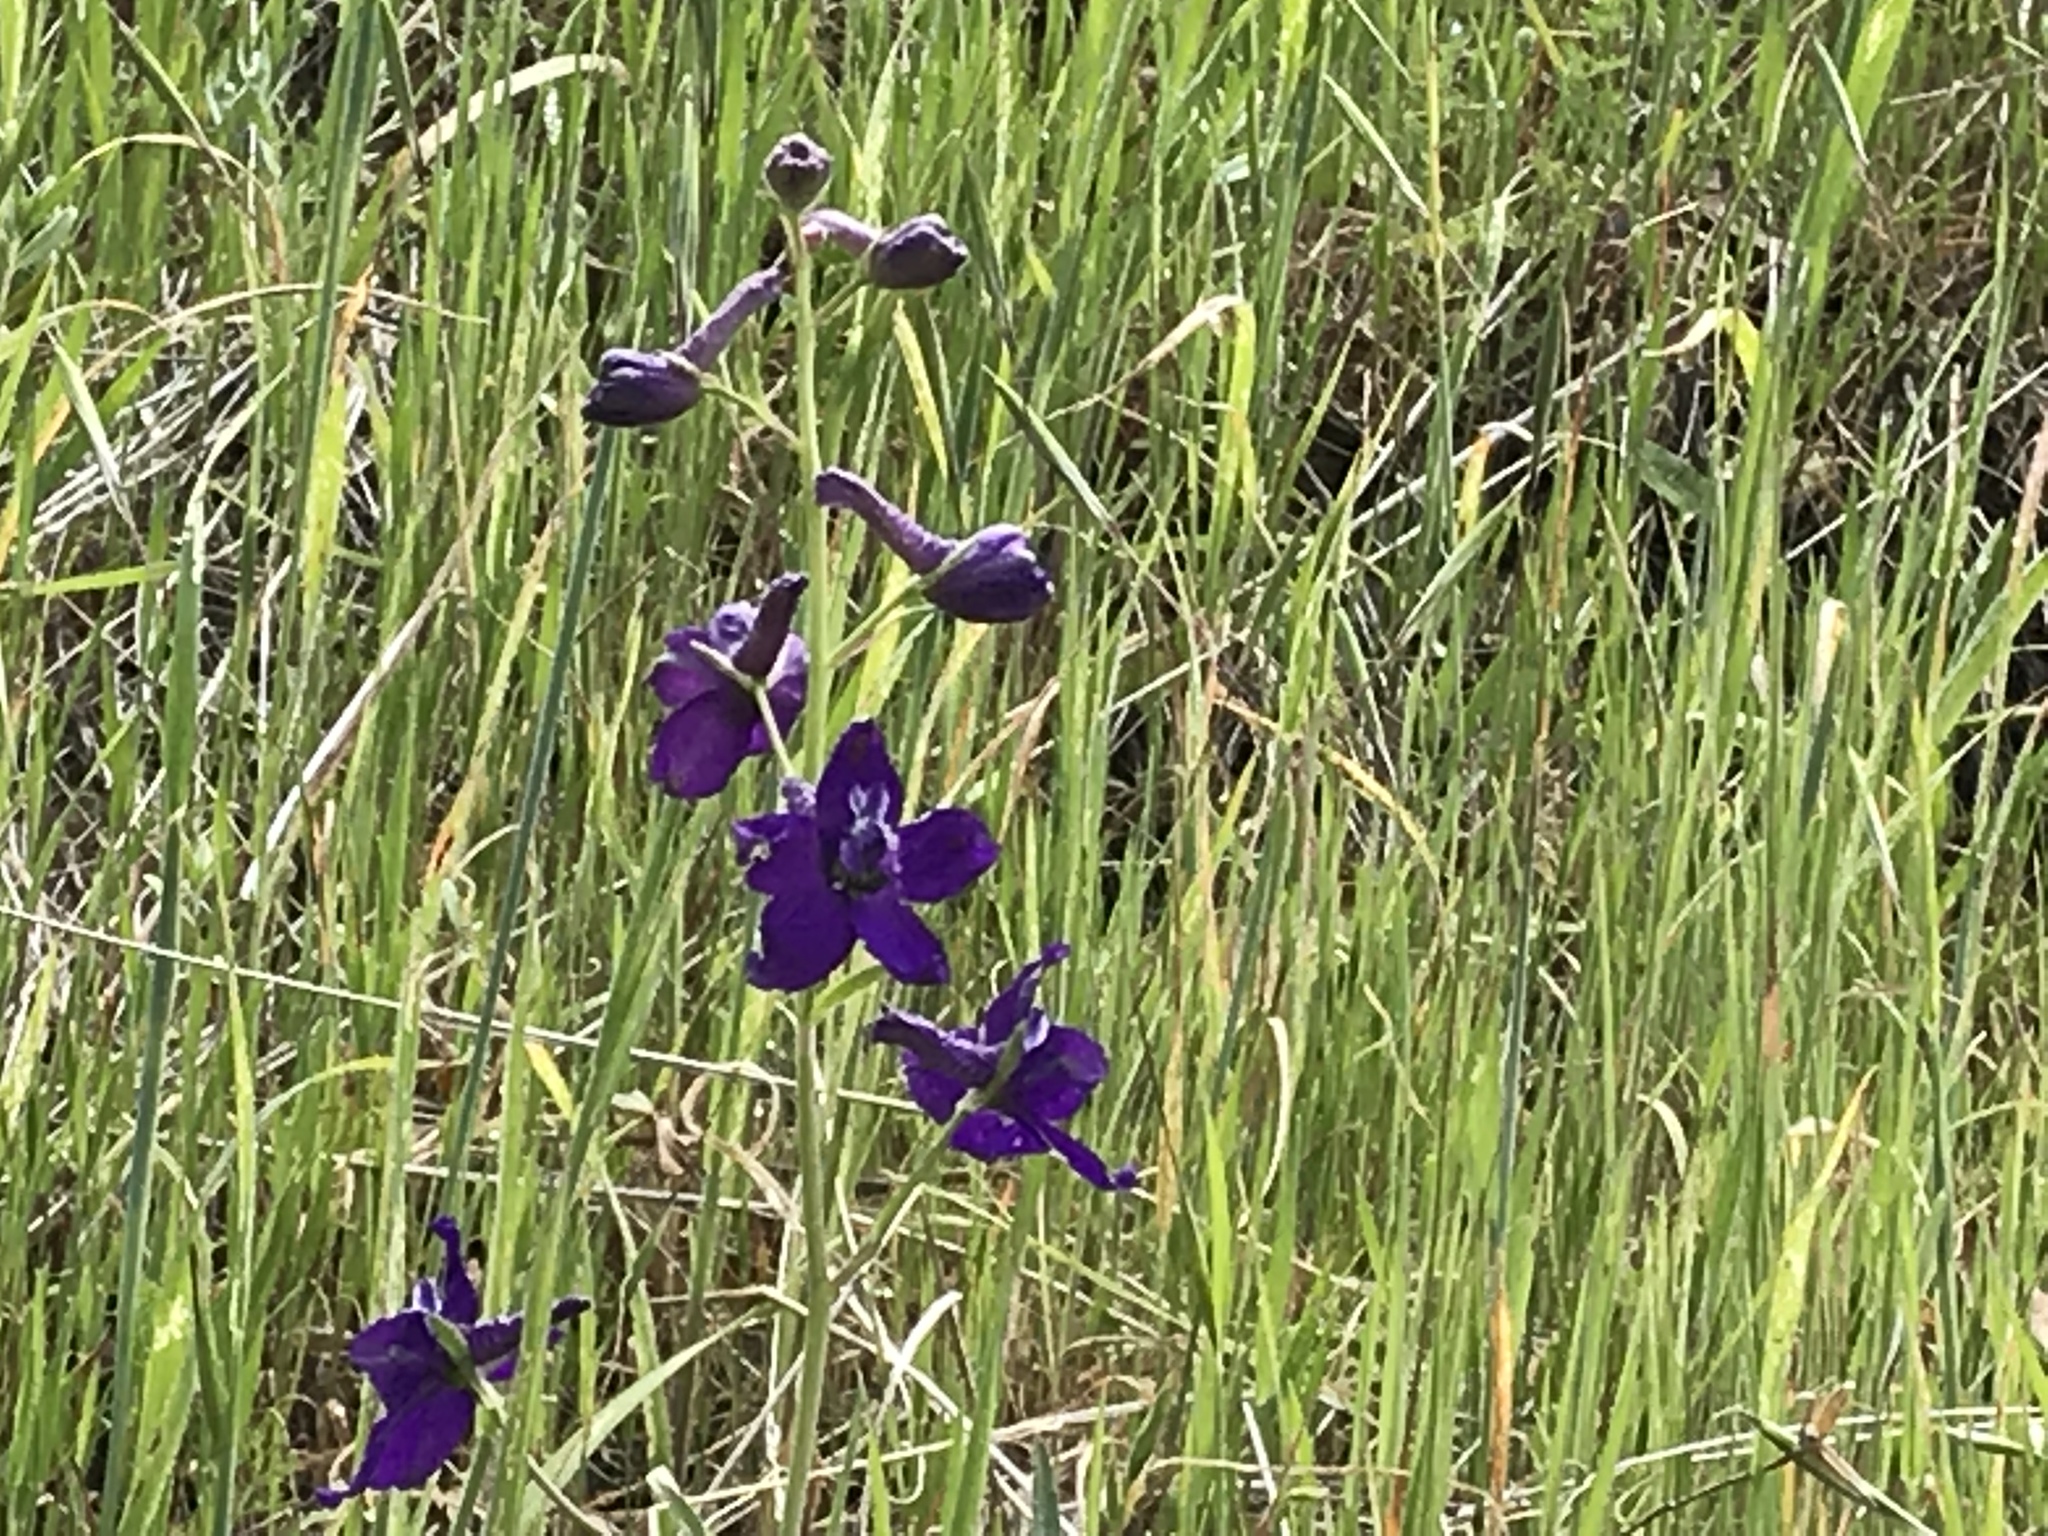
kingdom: Plantae
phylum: Tracheophyta
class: Magnoliopsida
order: Ranunculales
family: Ranunculaceae
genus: Delphinium
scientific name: Delphinium patens
